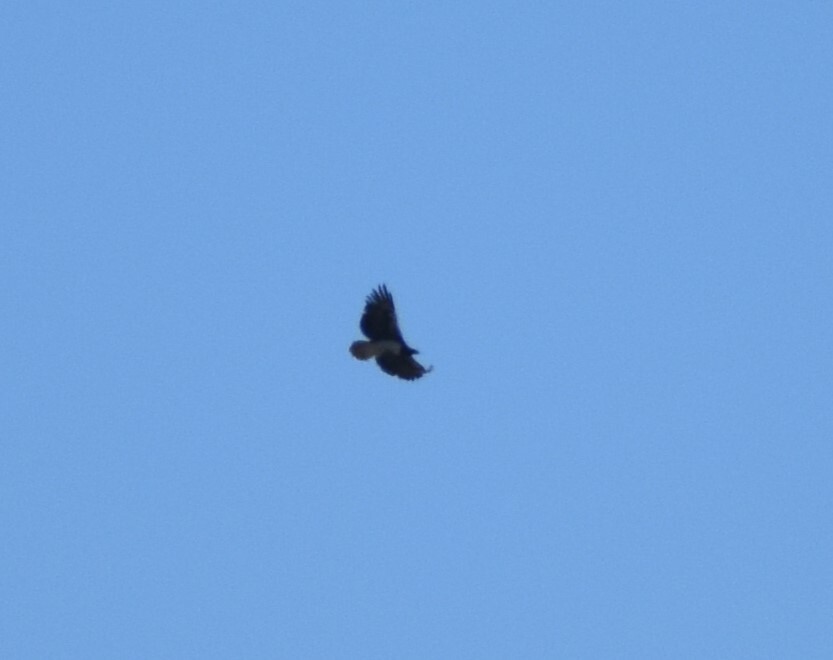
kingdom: Animalia
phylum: Chordata
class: Aves
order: Accipitriformes
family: Accipitridae
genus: Polemaetus
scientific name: Polemaetus bellicosus
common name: Martial eagle
